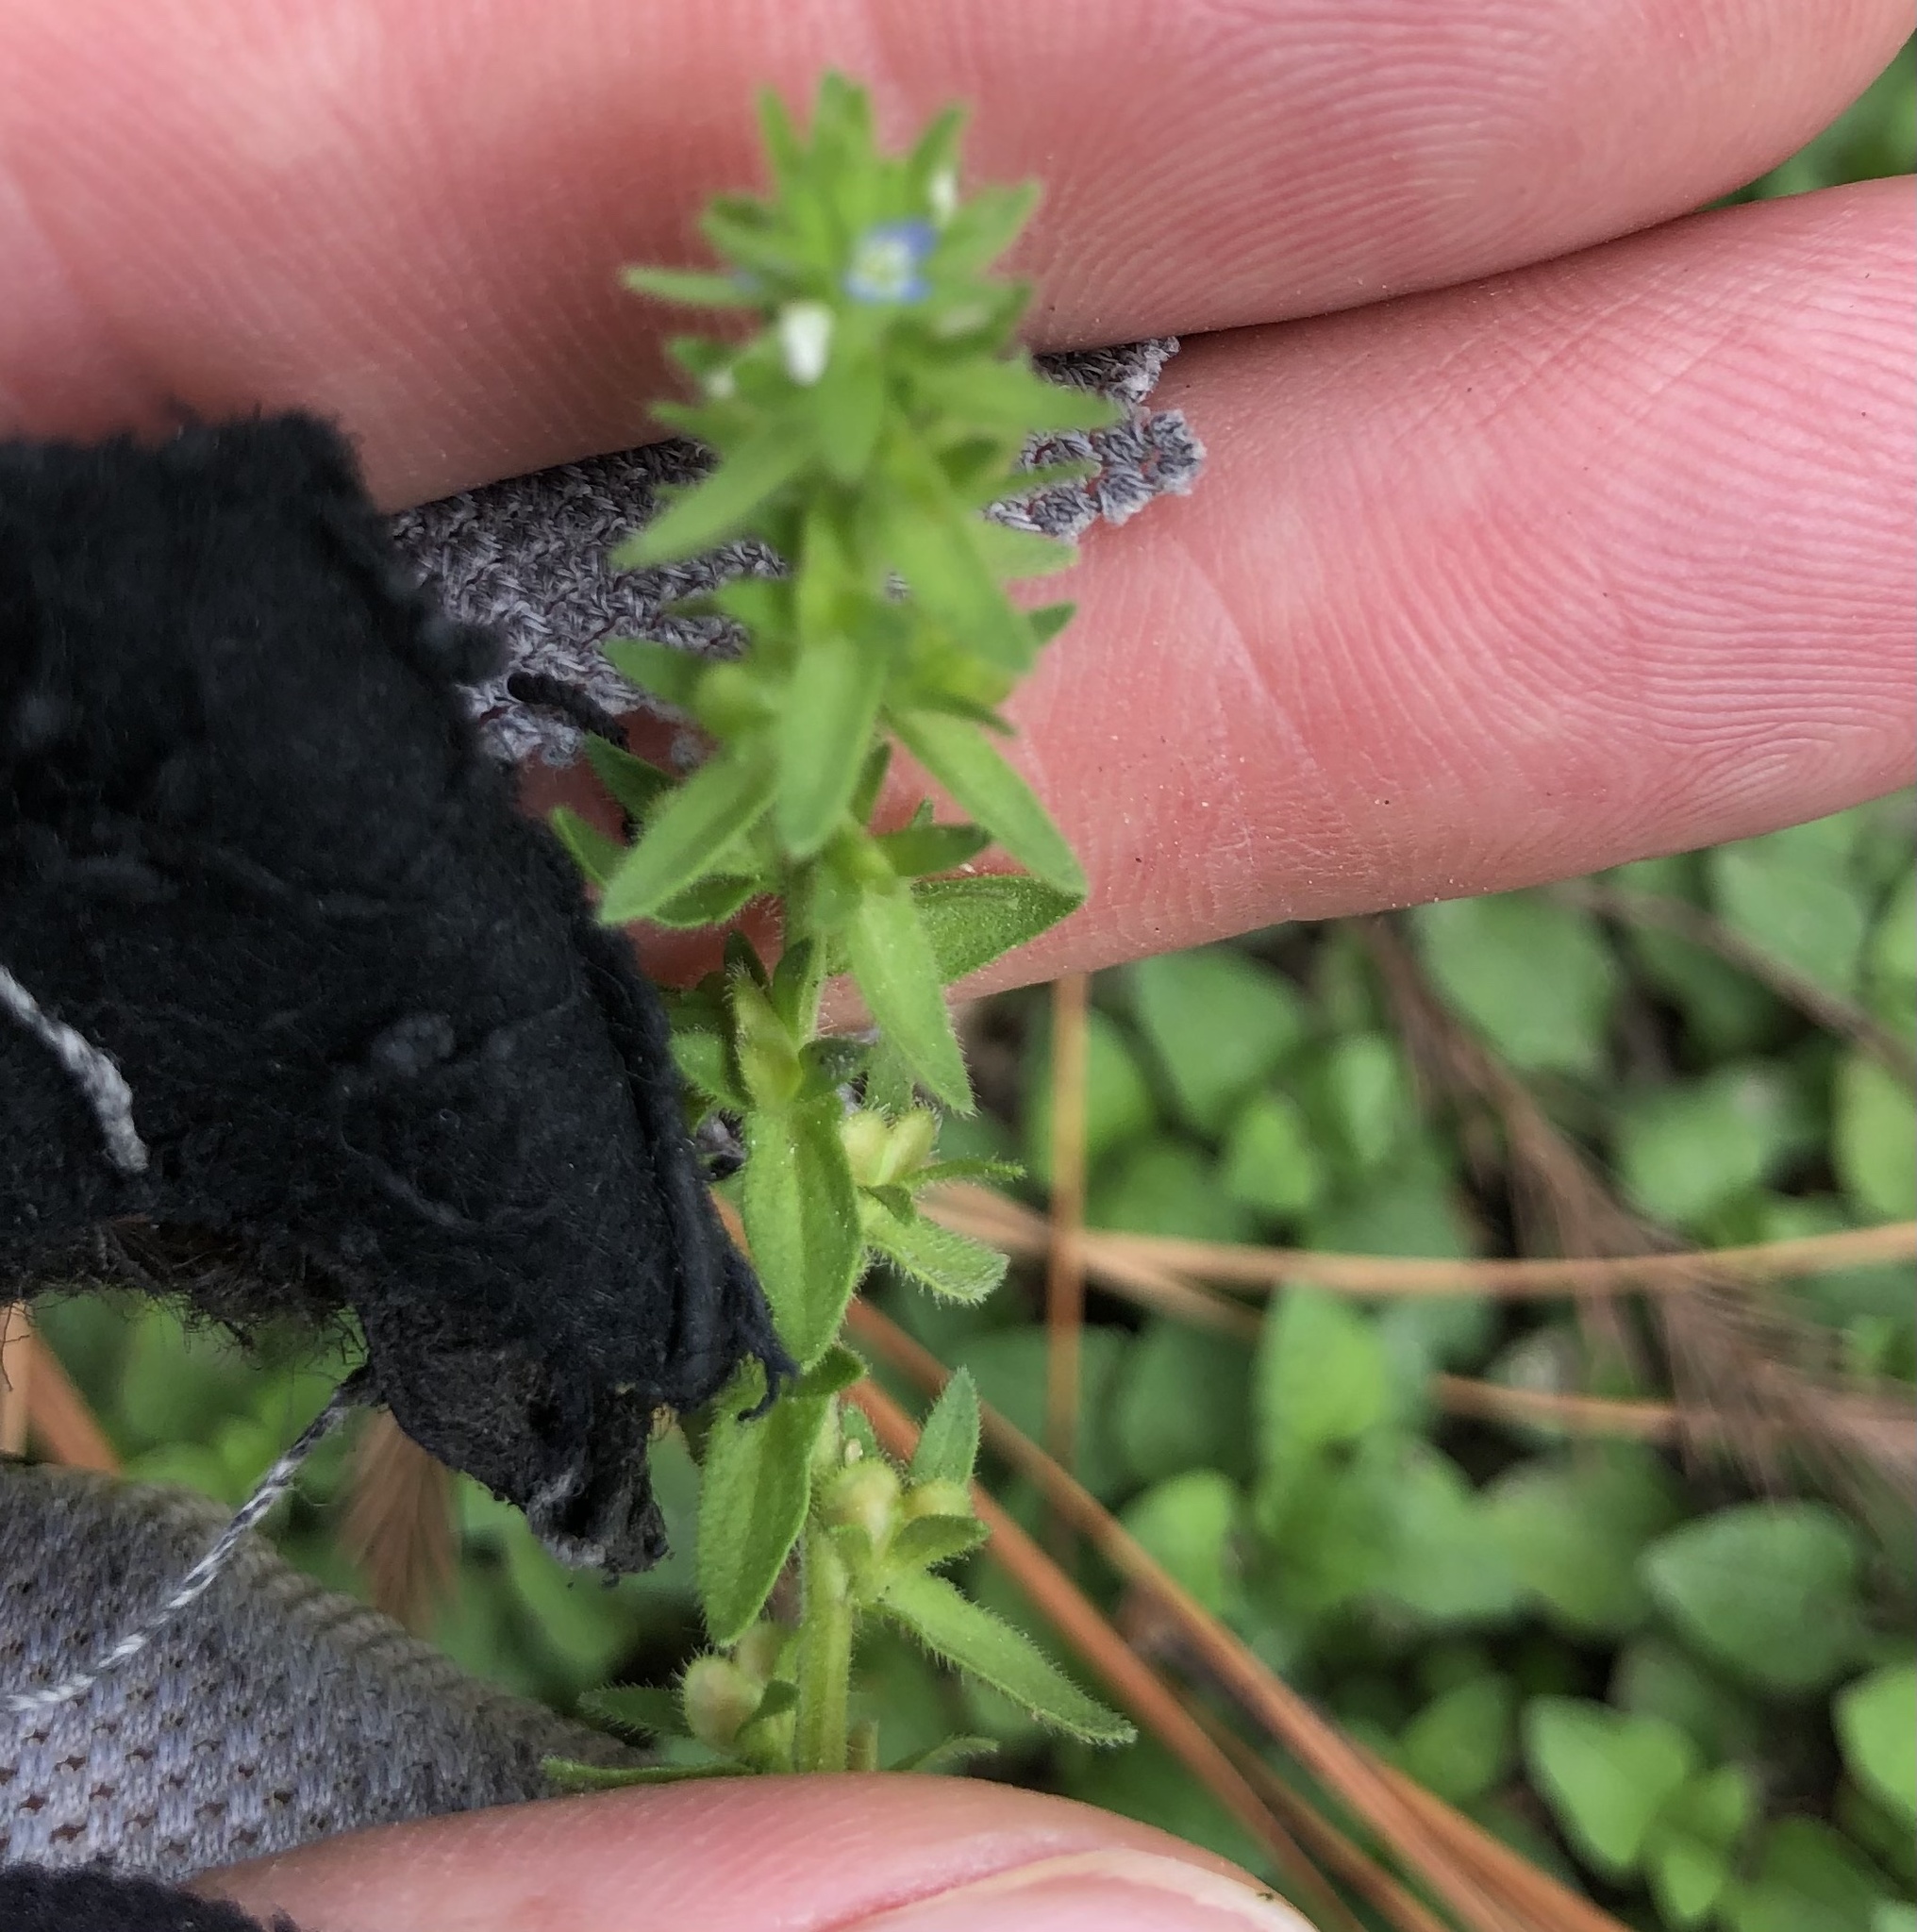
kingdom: Plantae
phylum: Tracheophyta
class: Magnoliopsida
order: Lamiales
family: Plantaginaceae
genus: Veronica
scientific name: Veronica arvensis
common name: Corn speedwell
